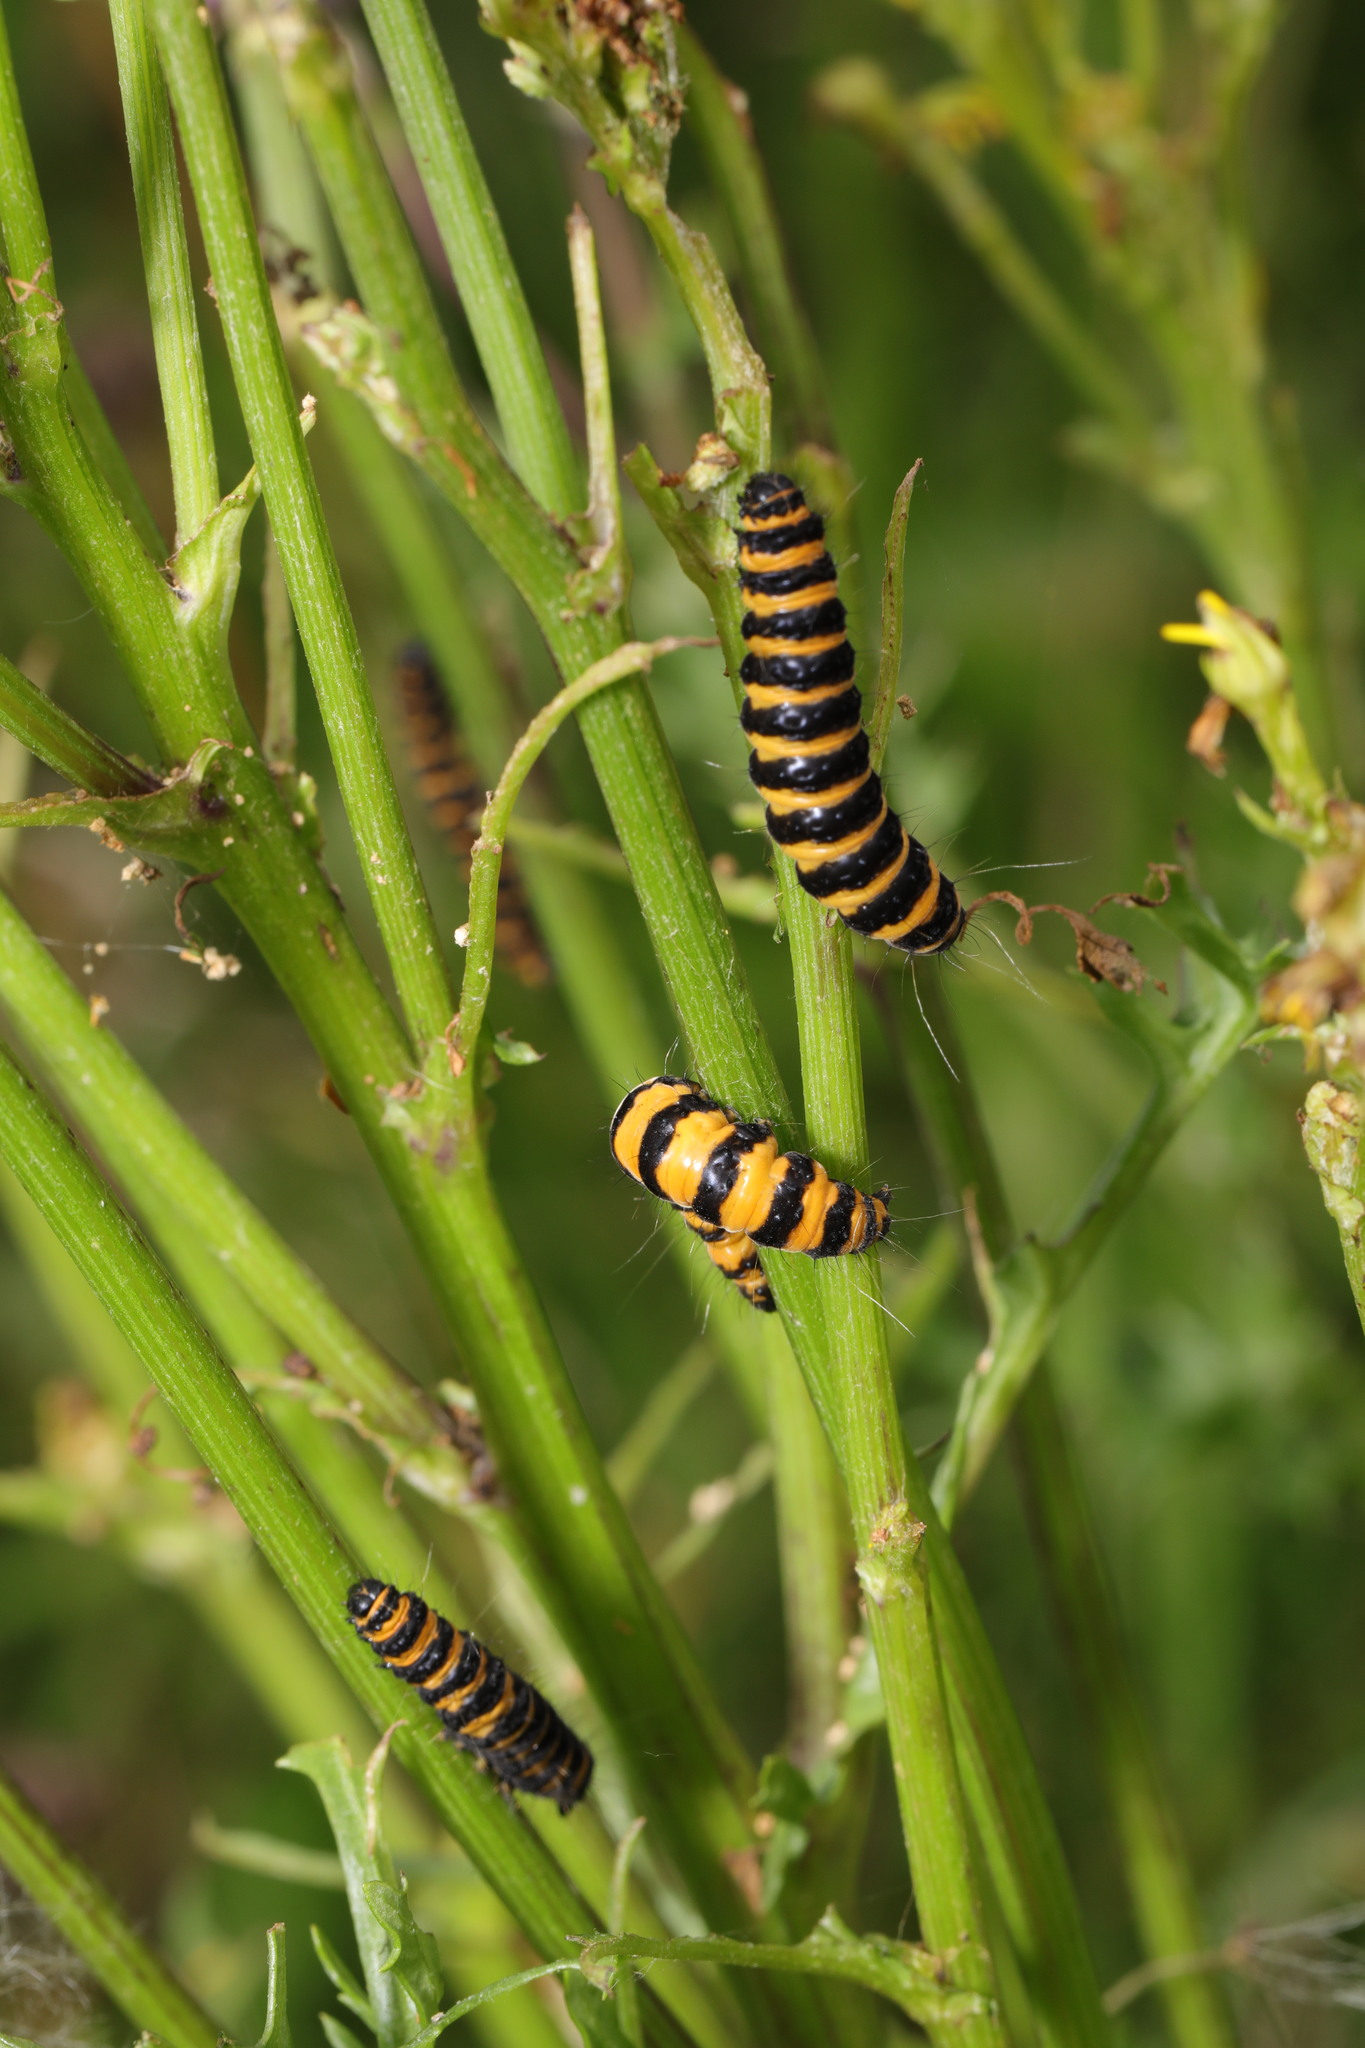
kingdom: Animalia
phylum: Arthropoda
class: Insecta
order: Lepidoptera
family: Erebidae
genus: Tyria
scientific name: Tyria jacobaeae
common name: Cinnabar
